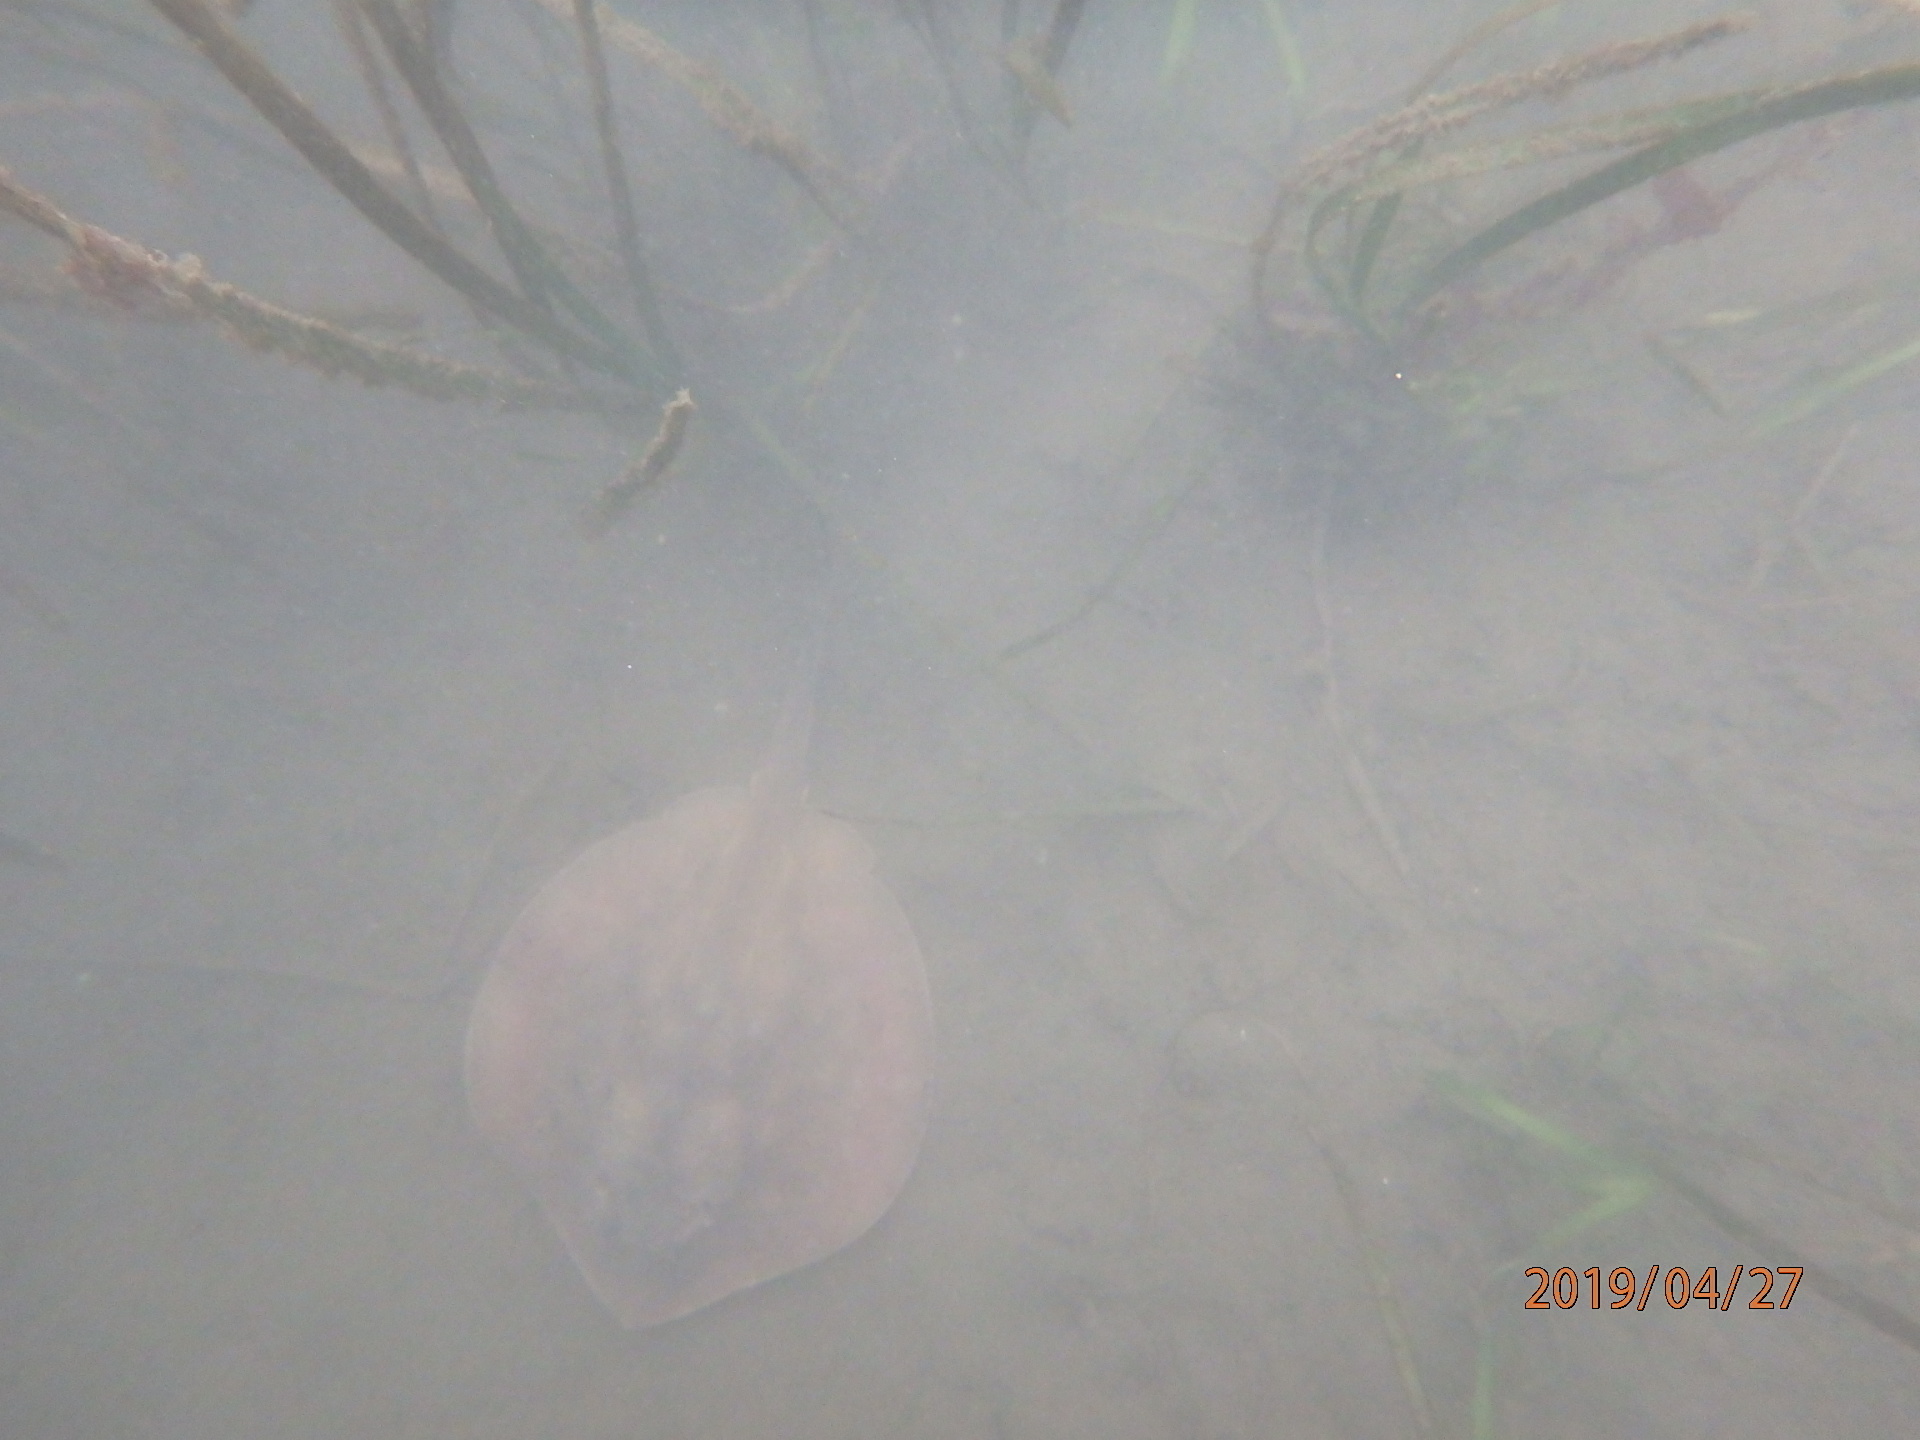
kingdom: Animalia
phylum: Chordata
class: Elasmobranchii
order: Myliobatiformes
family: Urolophidae
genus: Urolophus
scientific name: Urolophus halleri
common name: Round stingray
